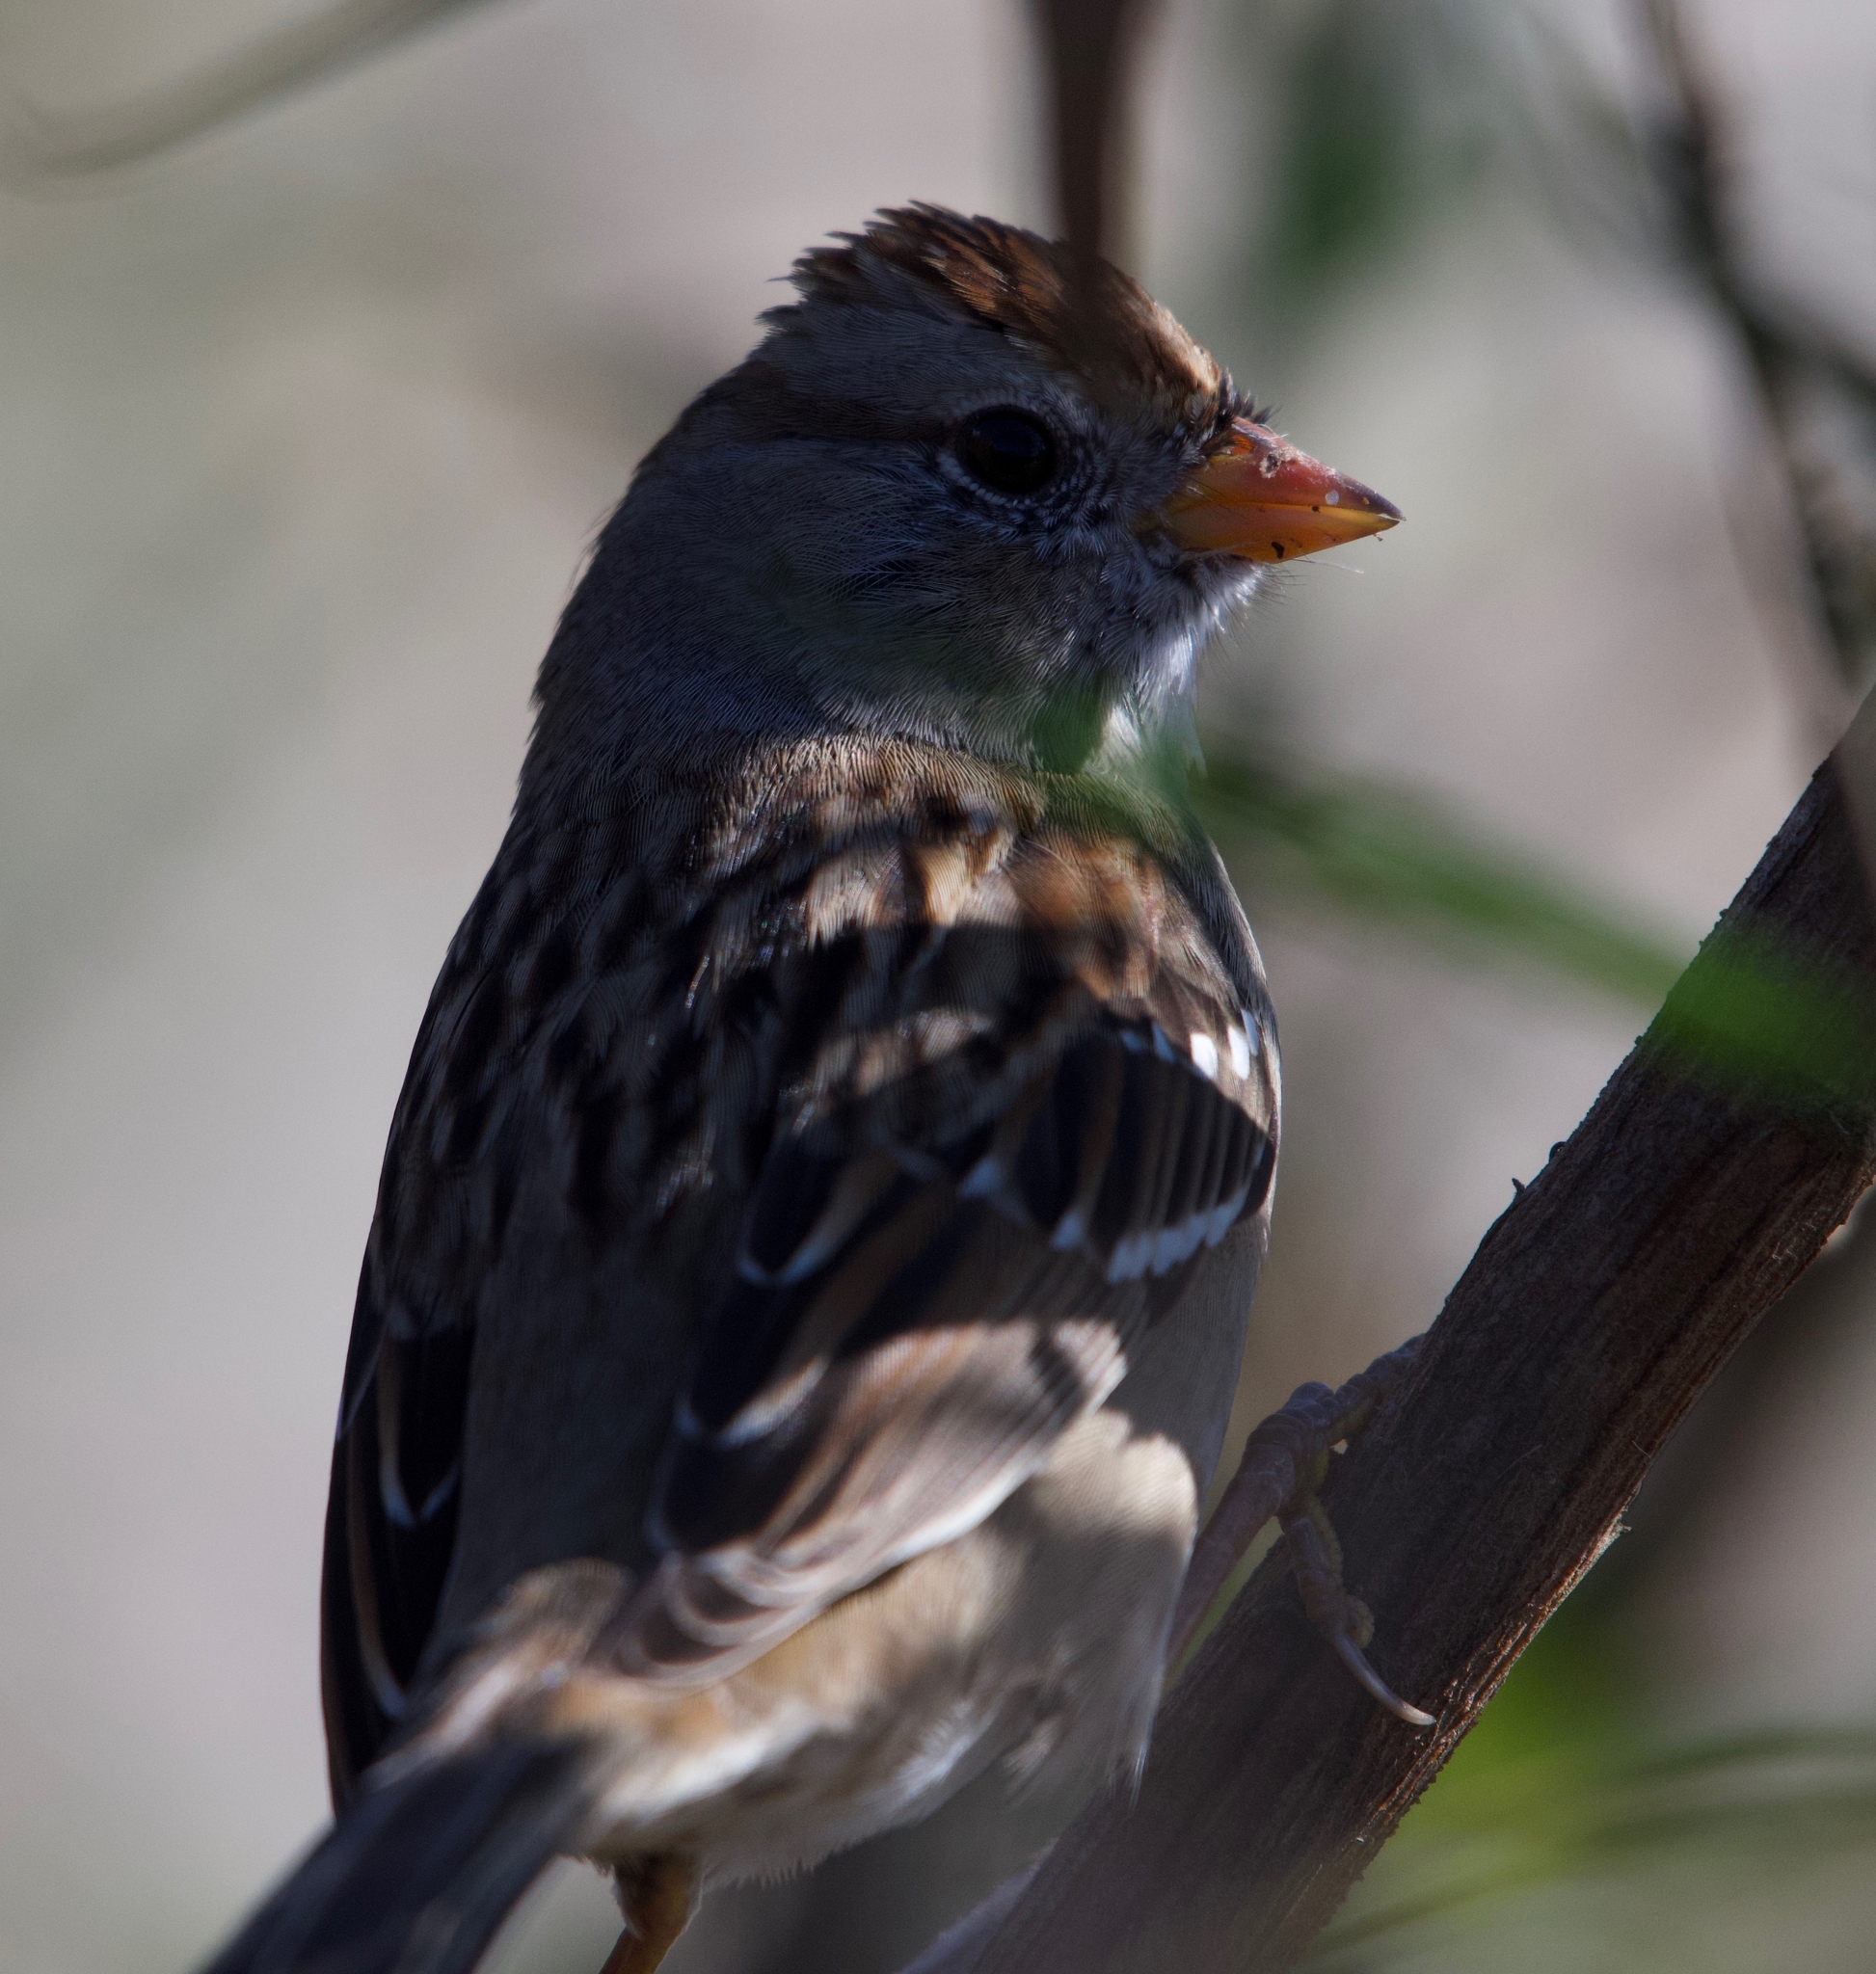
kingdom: Animalia
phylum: Chordata
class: Aves
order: Passeriformes
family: Passerellidae
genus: Zonotrichia
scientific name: Zonotrichia leucophrys
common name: White-crowned sparrow
